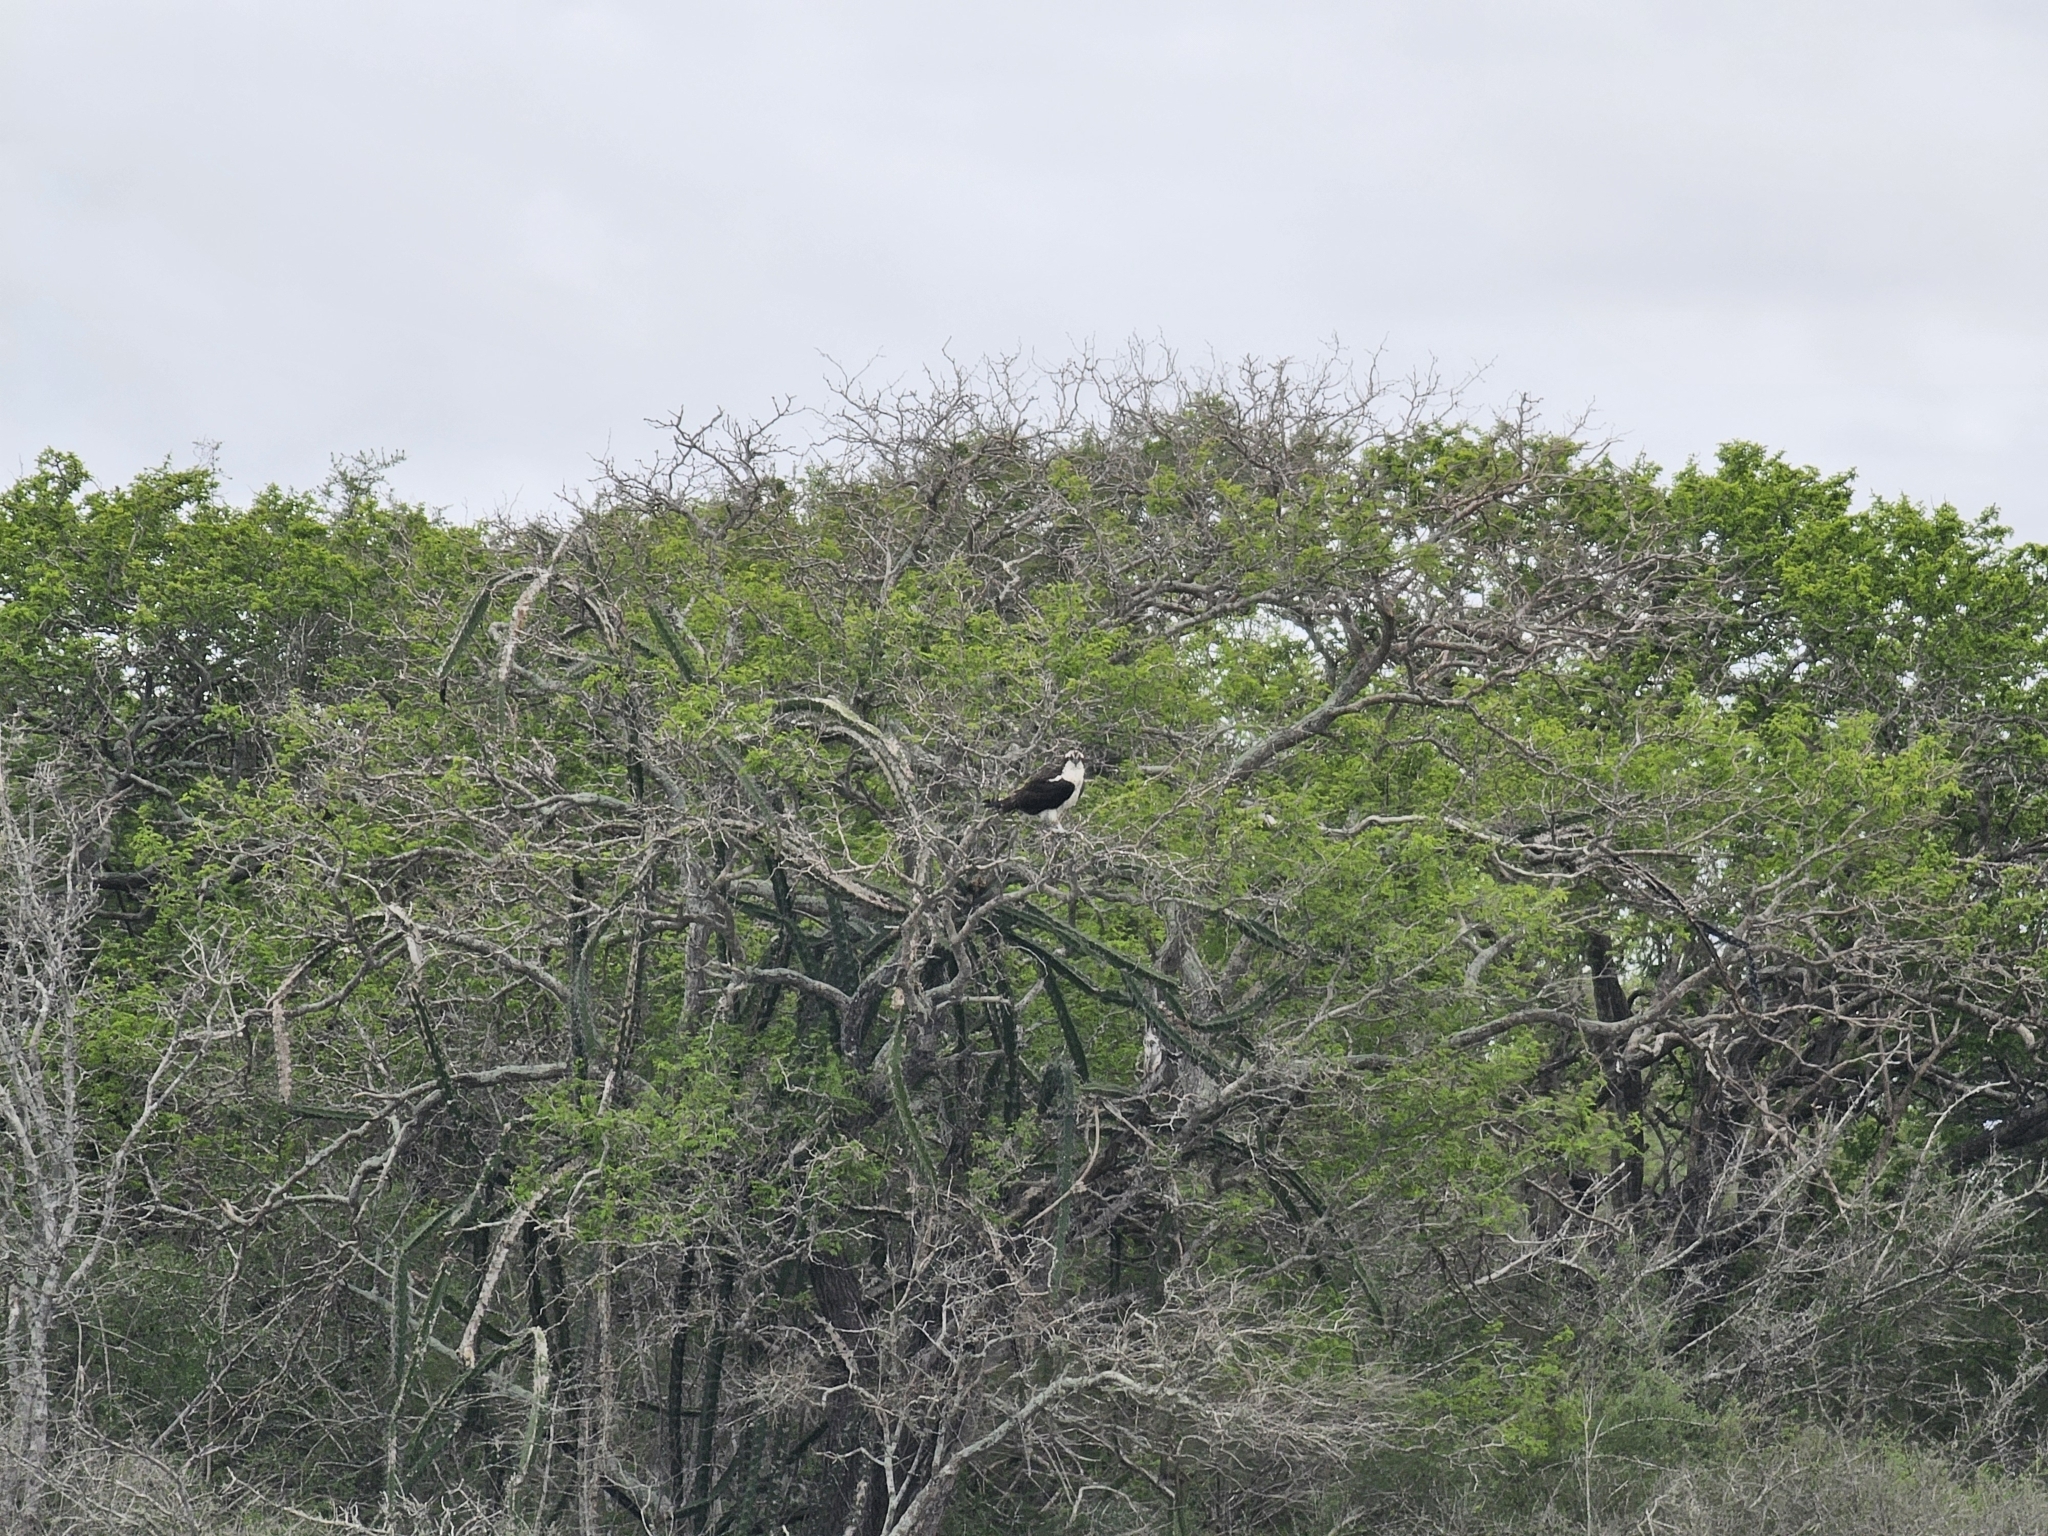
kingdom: Animalia
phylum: Chordata
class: Aves
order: Accipitriformes
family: Pandionidae
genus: Pandion
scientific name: Pandion haliaetus
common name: Osprey
